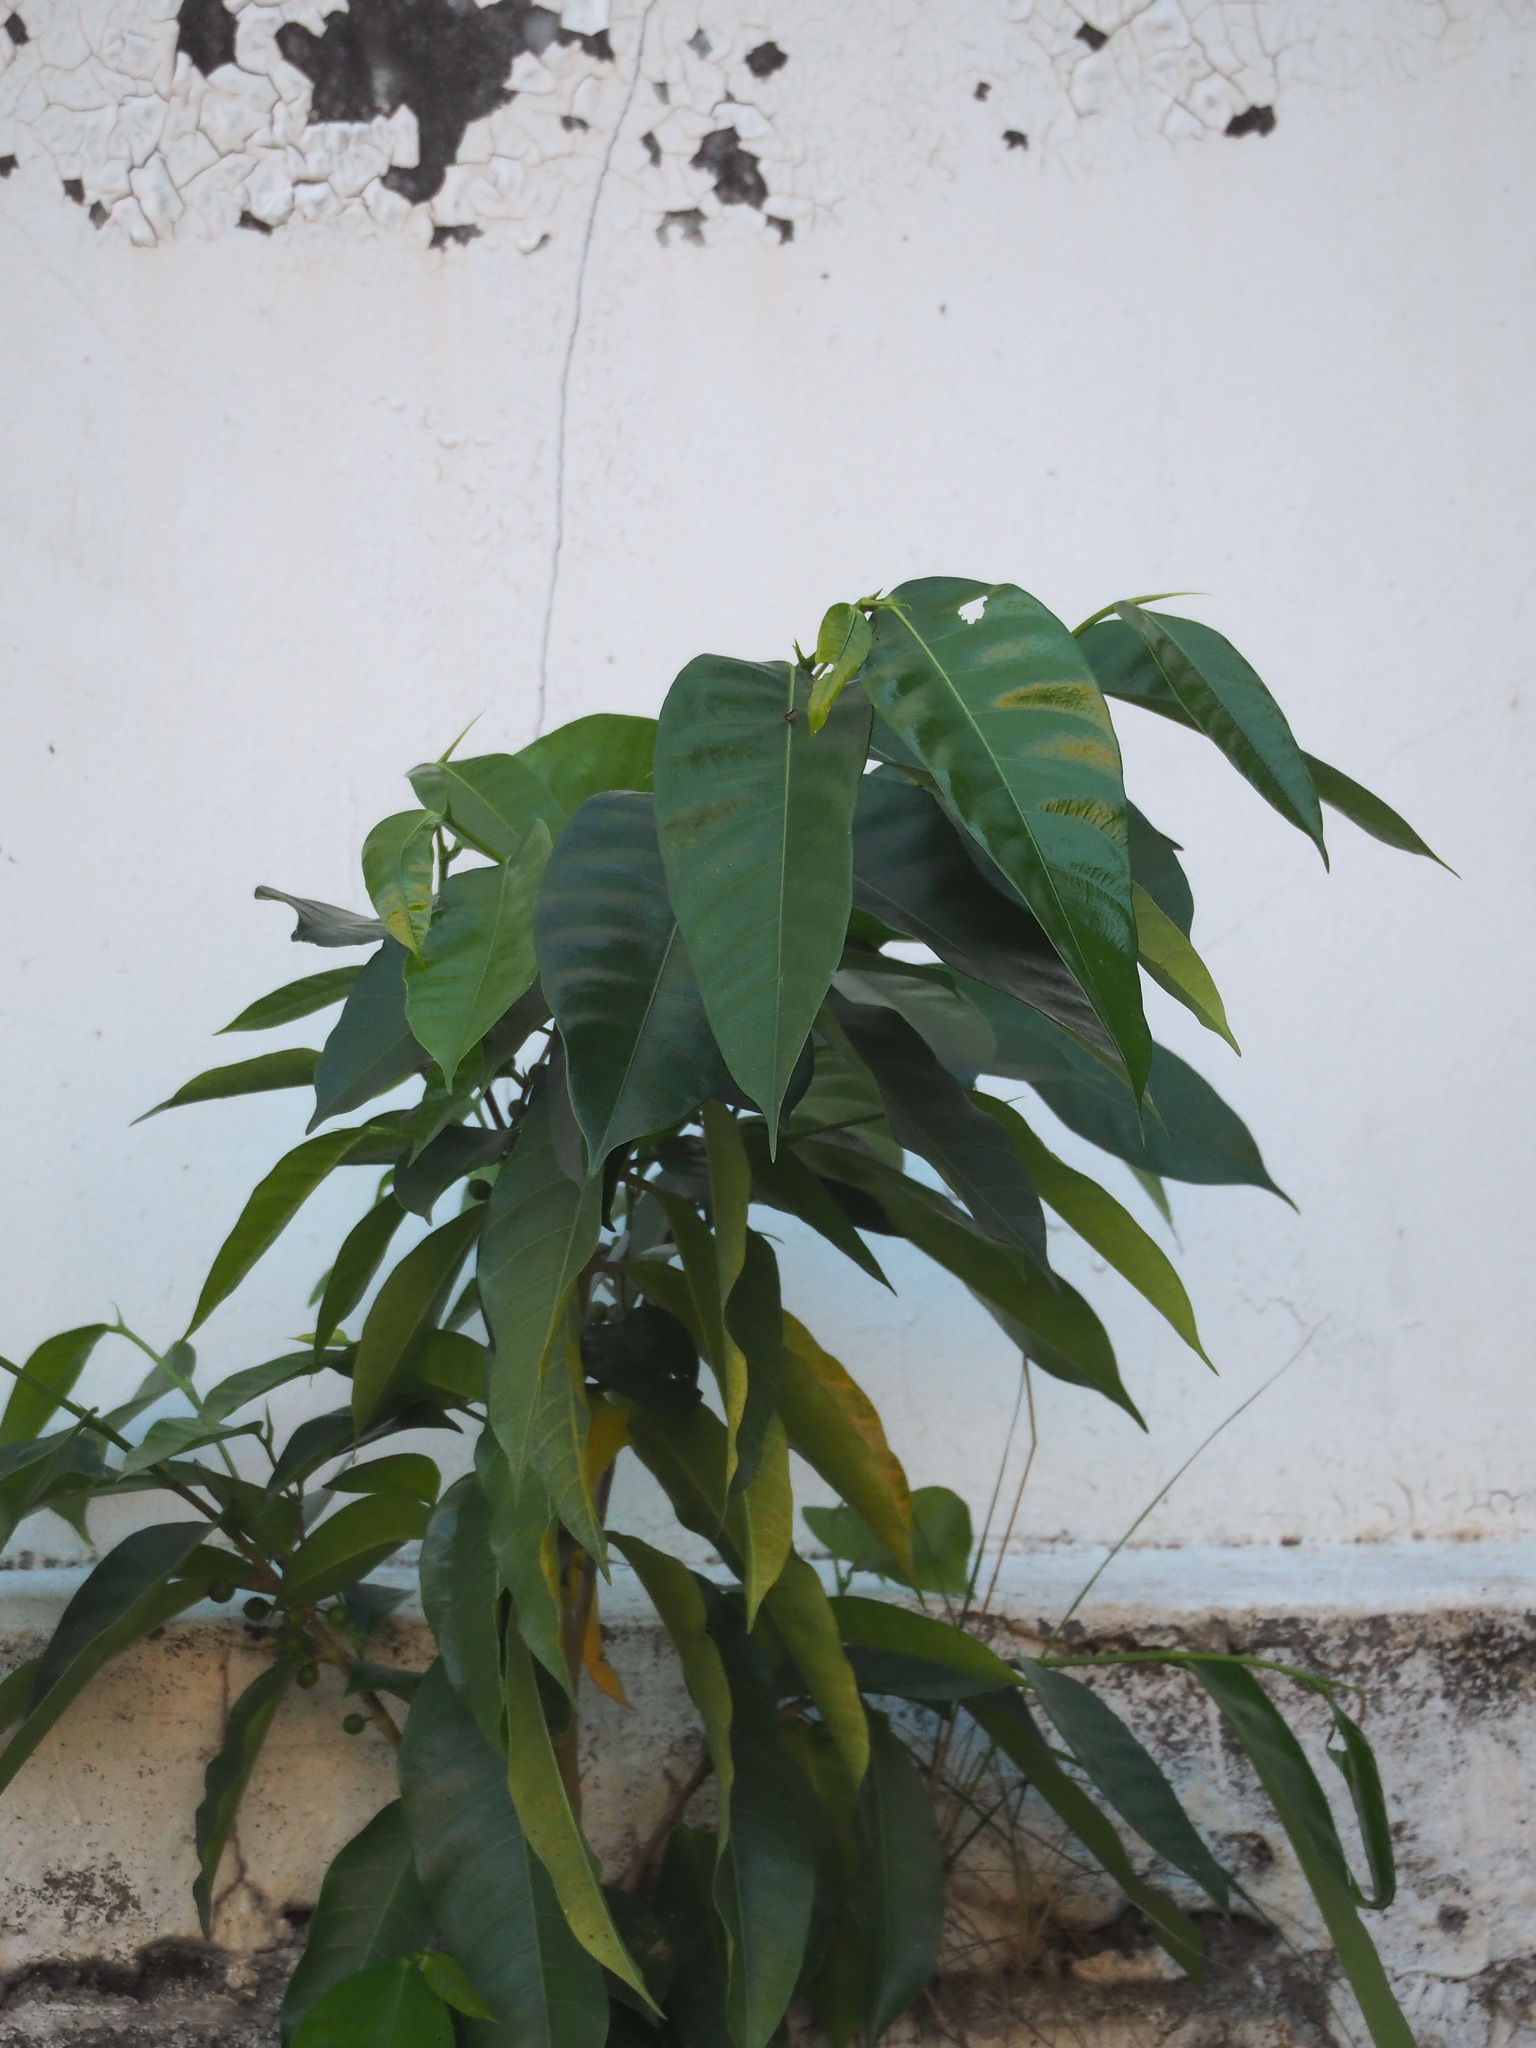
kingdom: Plantae
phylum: Tracheophyta
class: Magnoliopsida
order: Rosales
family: Moraceae
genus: Ficus
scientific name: Ficus virgata
